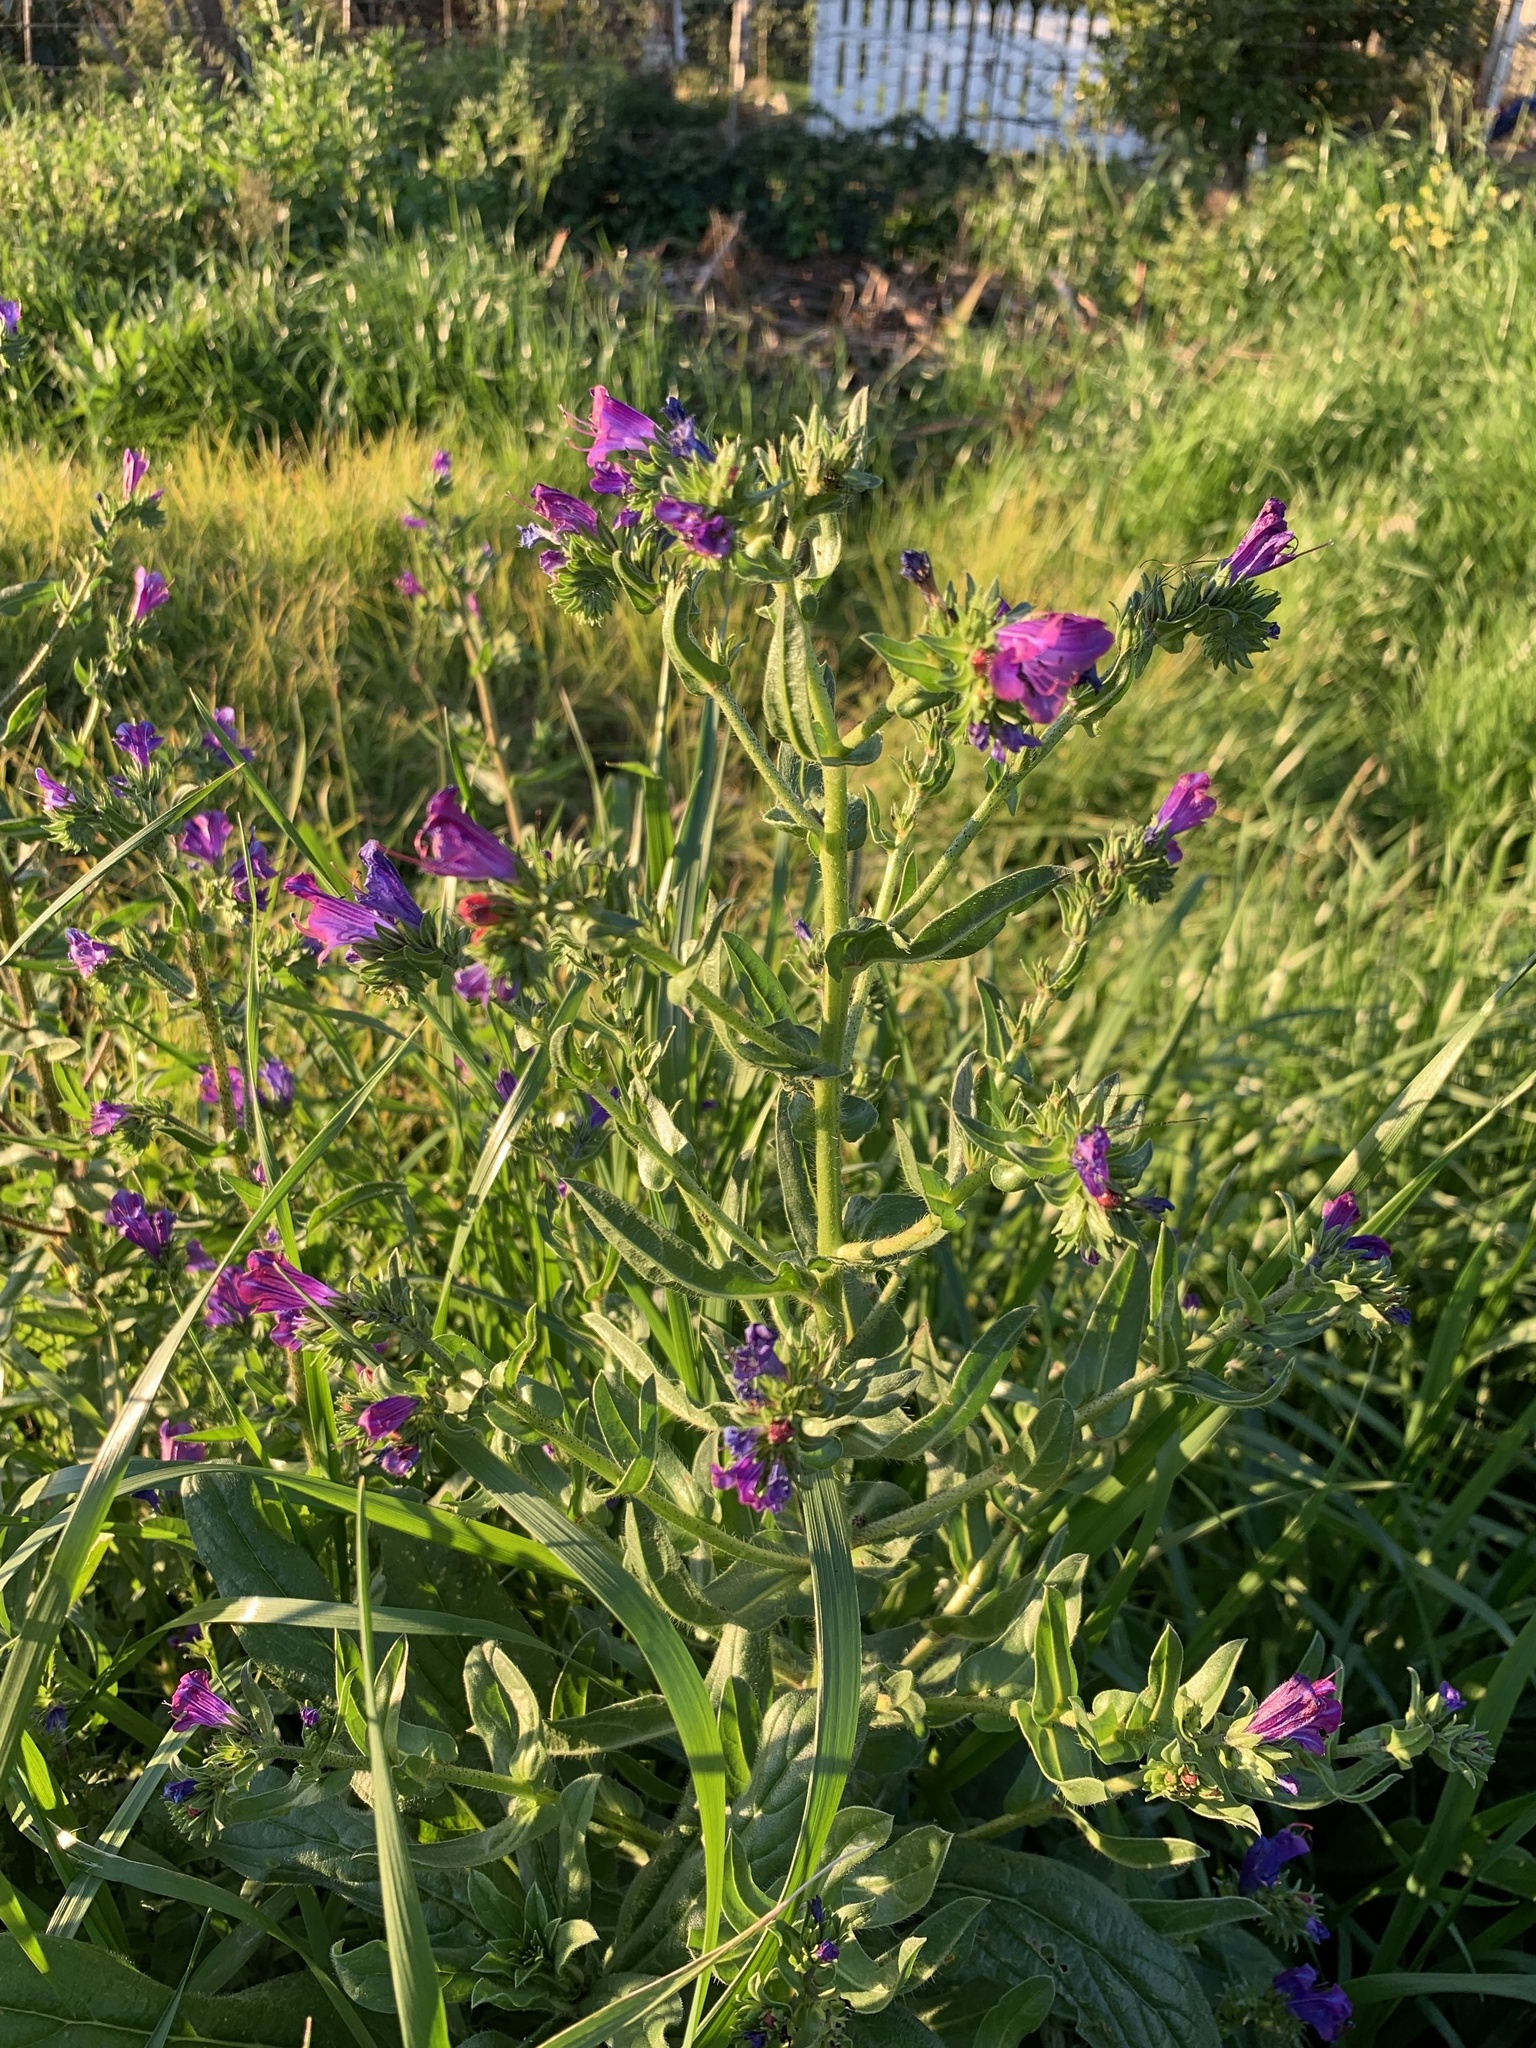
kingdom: Plantae
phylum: Tracheophyta
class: Magnoliopsida
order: Boraginales
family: Boraginaceae
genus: Echium
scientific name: Echium plantagineum
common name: Purple viper's-bugloss
